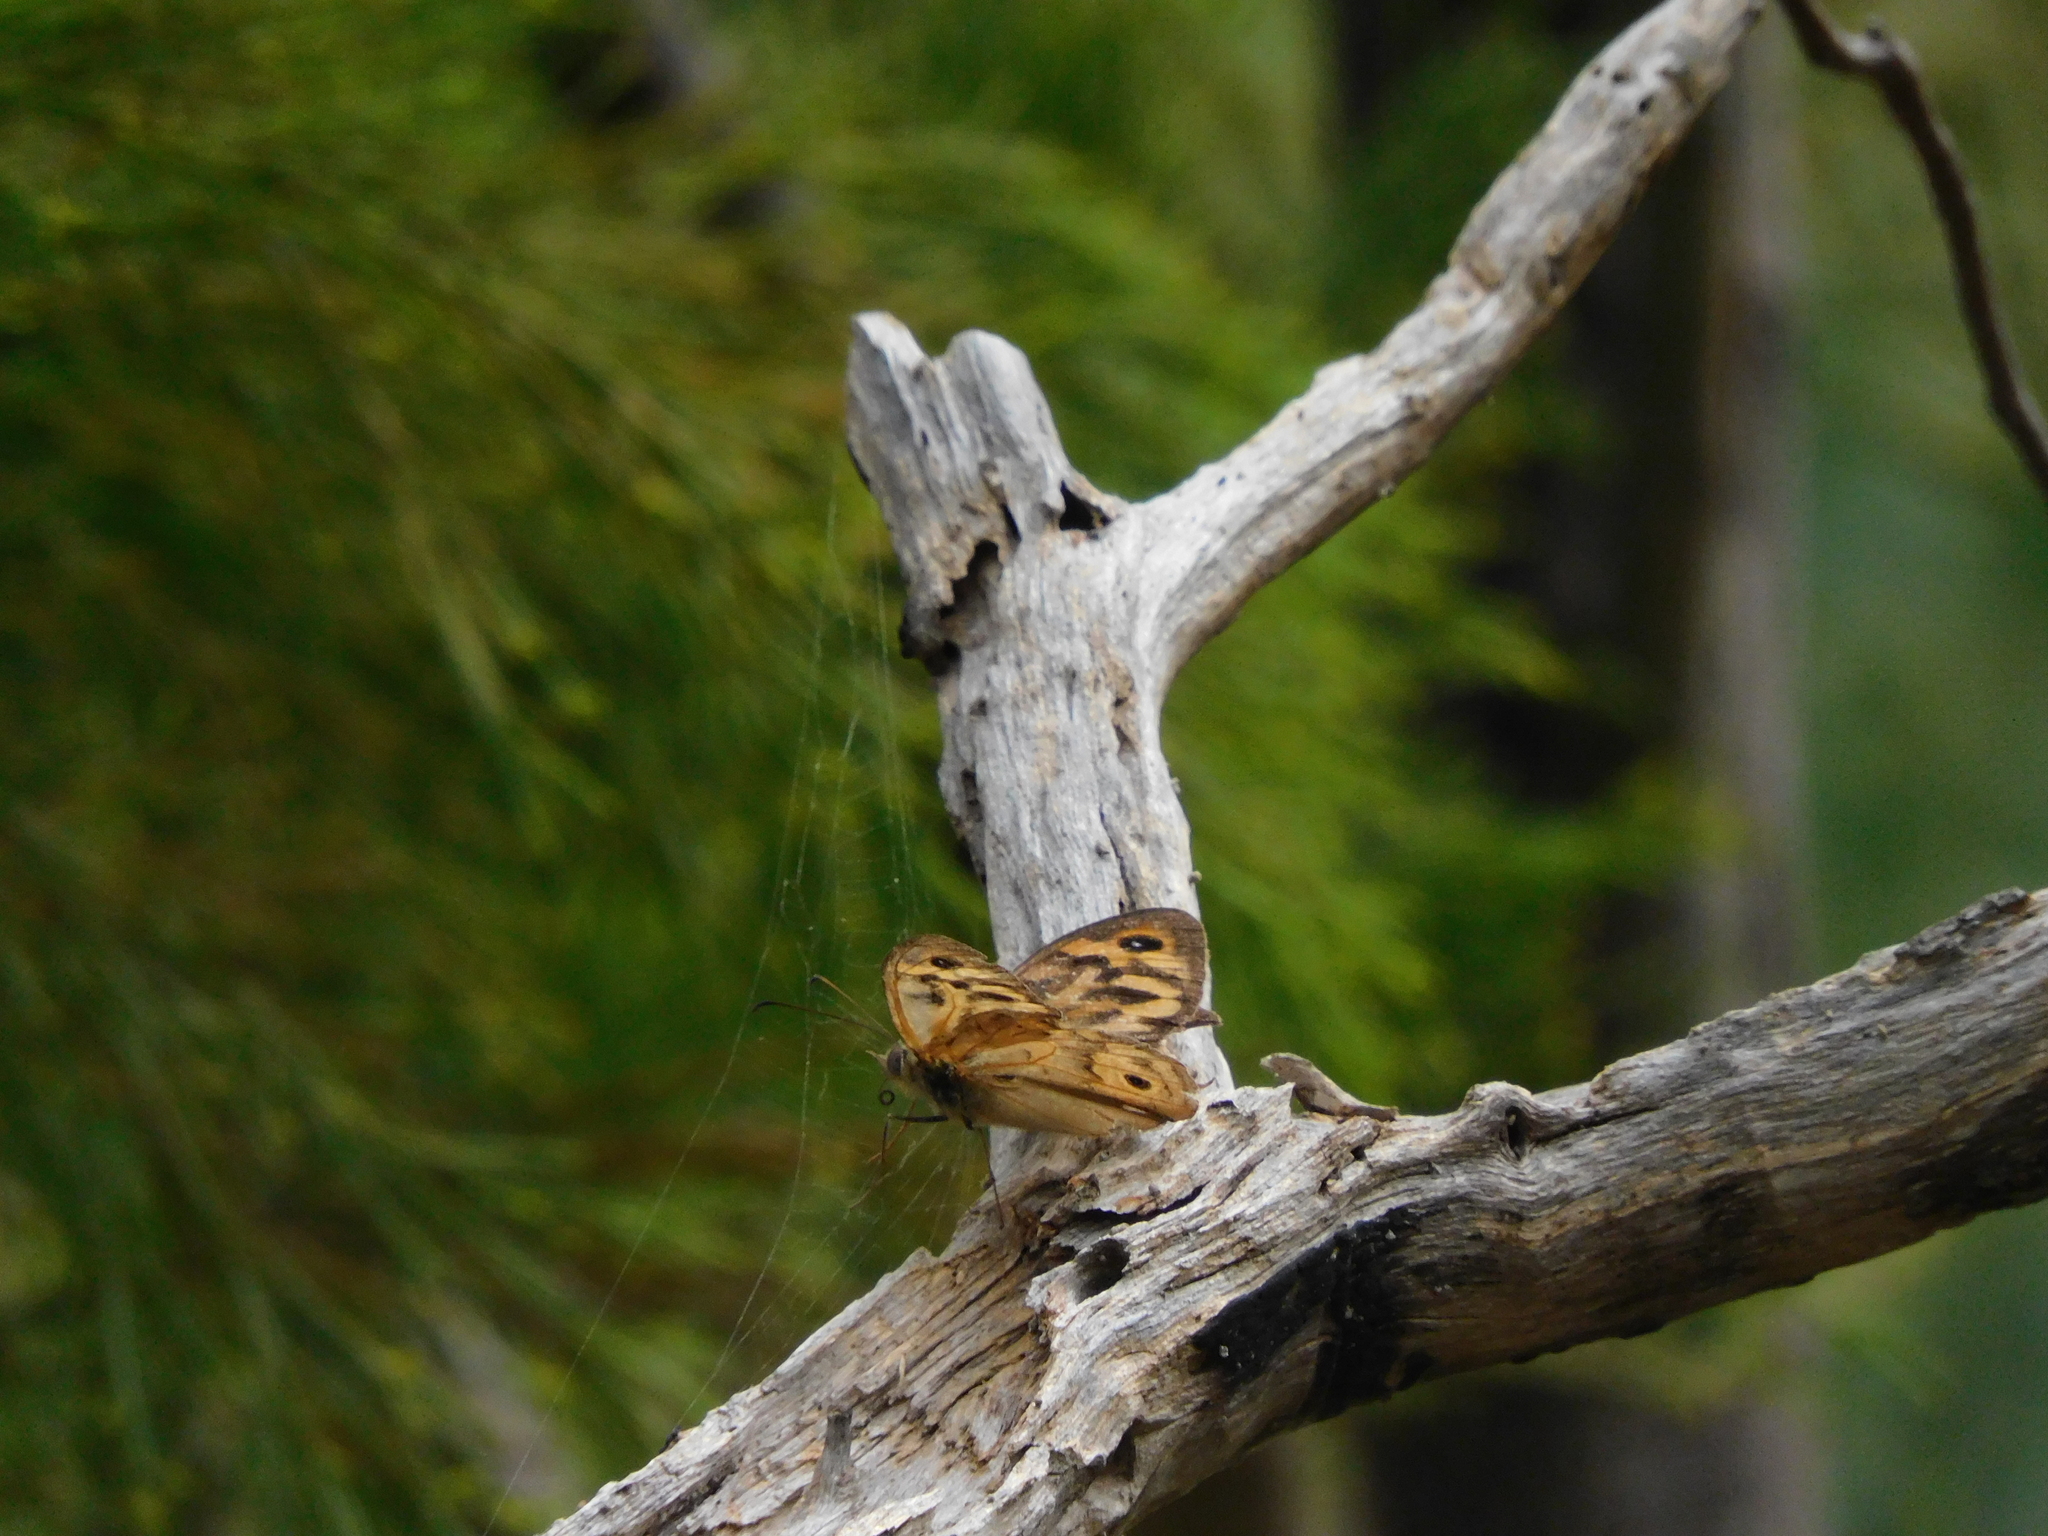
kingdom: Animalia
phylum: Arthropoda
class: Insecta
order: Lepidoptera
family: Nymphalidae
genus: Heteronympha
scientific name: Heteronympha merope
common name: Common brown
